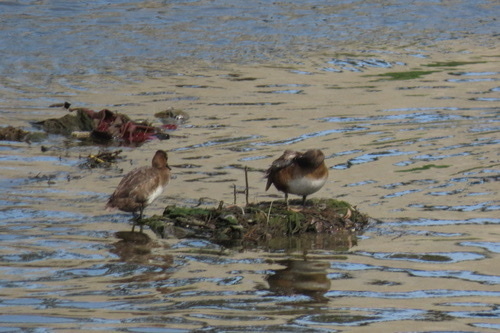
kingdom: Animalia
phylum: Chordata
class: Aves
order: Anseriformes
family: Anatidae
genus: Aythya
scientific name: Aythya collaris
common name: Ring-necked duck
